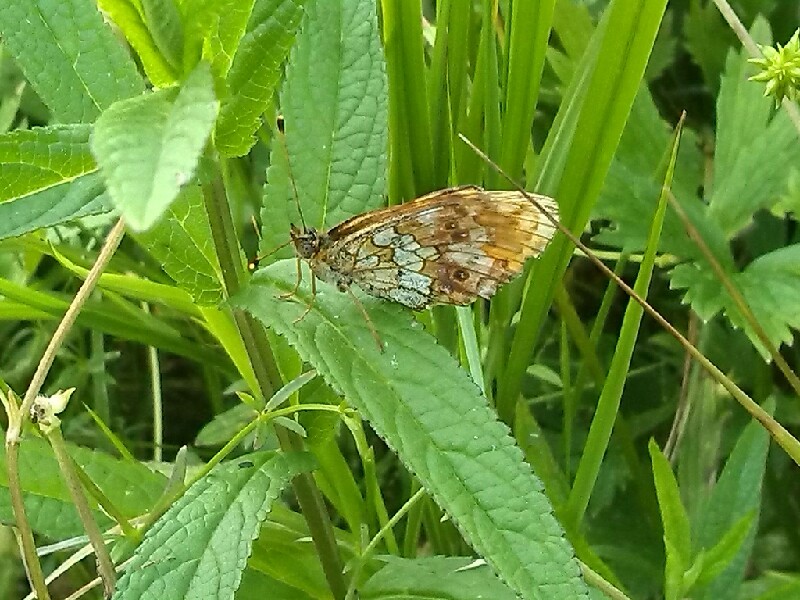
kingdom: Animalia
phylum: Arthropoda
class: Insecta
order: Lepidoptera
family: Nymphalidae
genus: Brenthis
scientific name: Brenthis ino
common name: Lesser marbled fritillary
